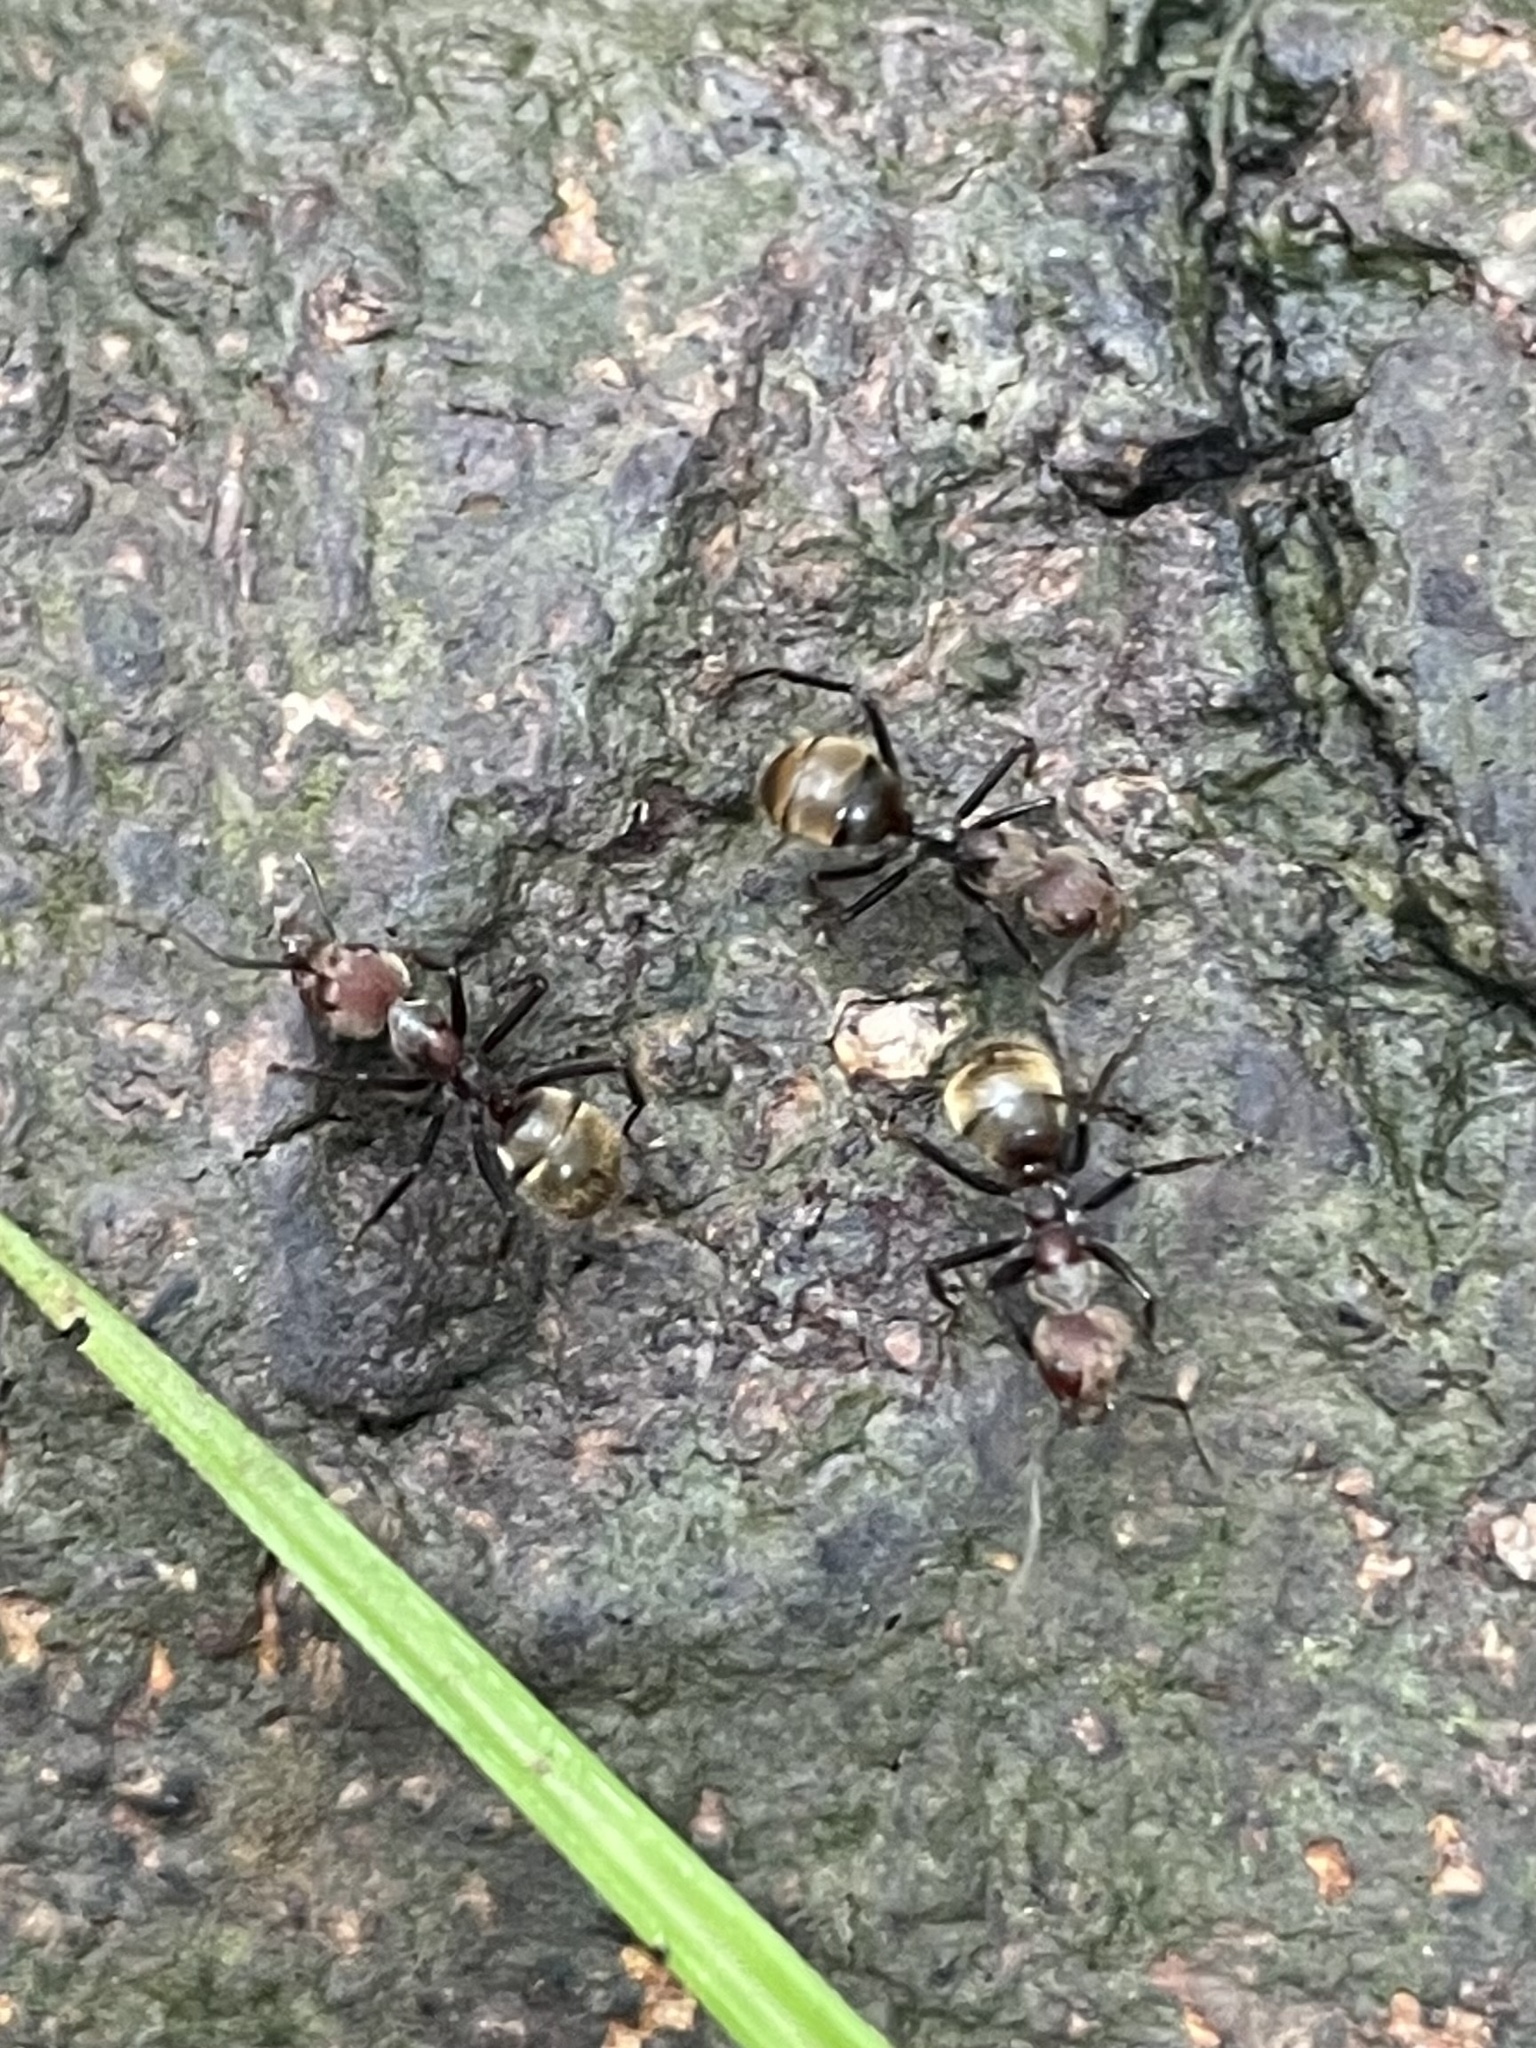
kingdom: Animalia
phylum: Arthropoda
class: Insecta
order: Hymenoptera
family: Formicidae
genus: Dolichoderus
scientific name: Dolichoderus quadridenticulatus
